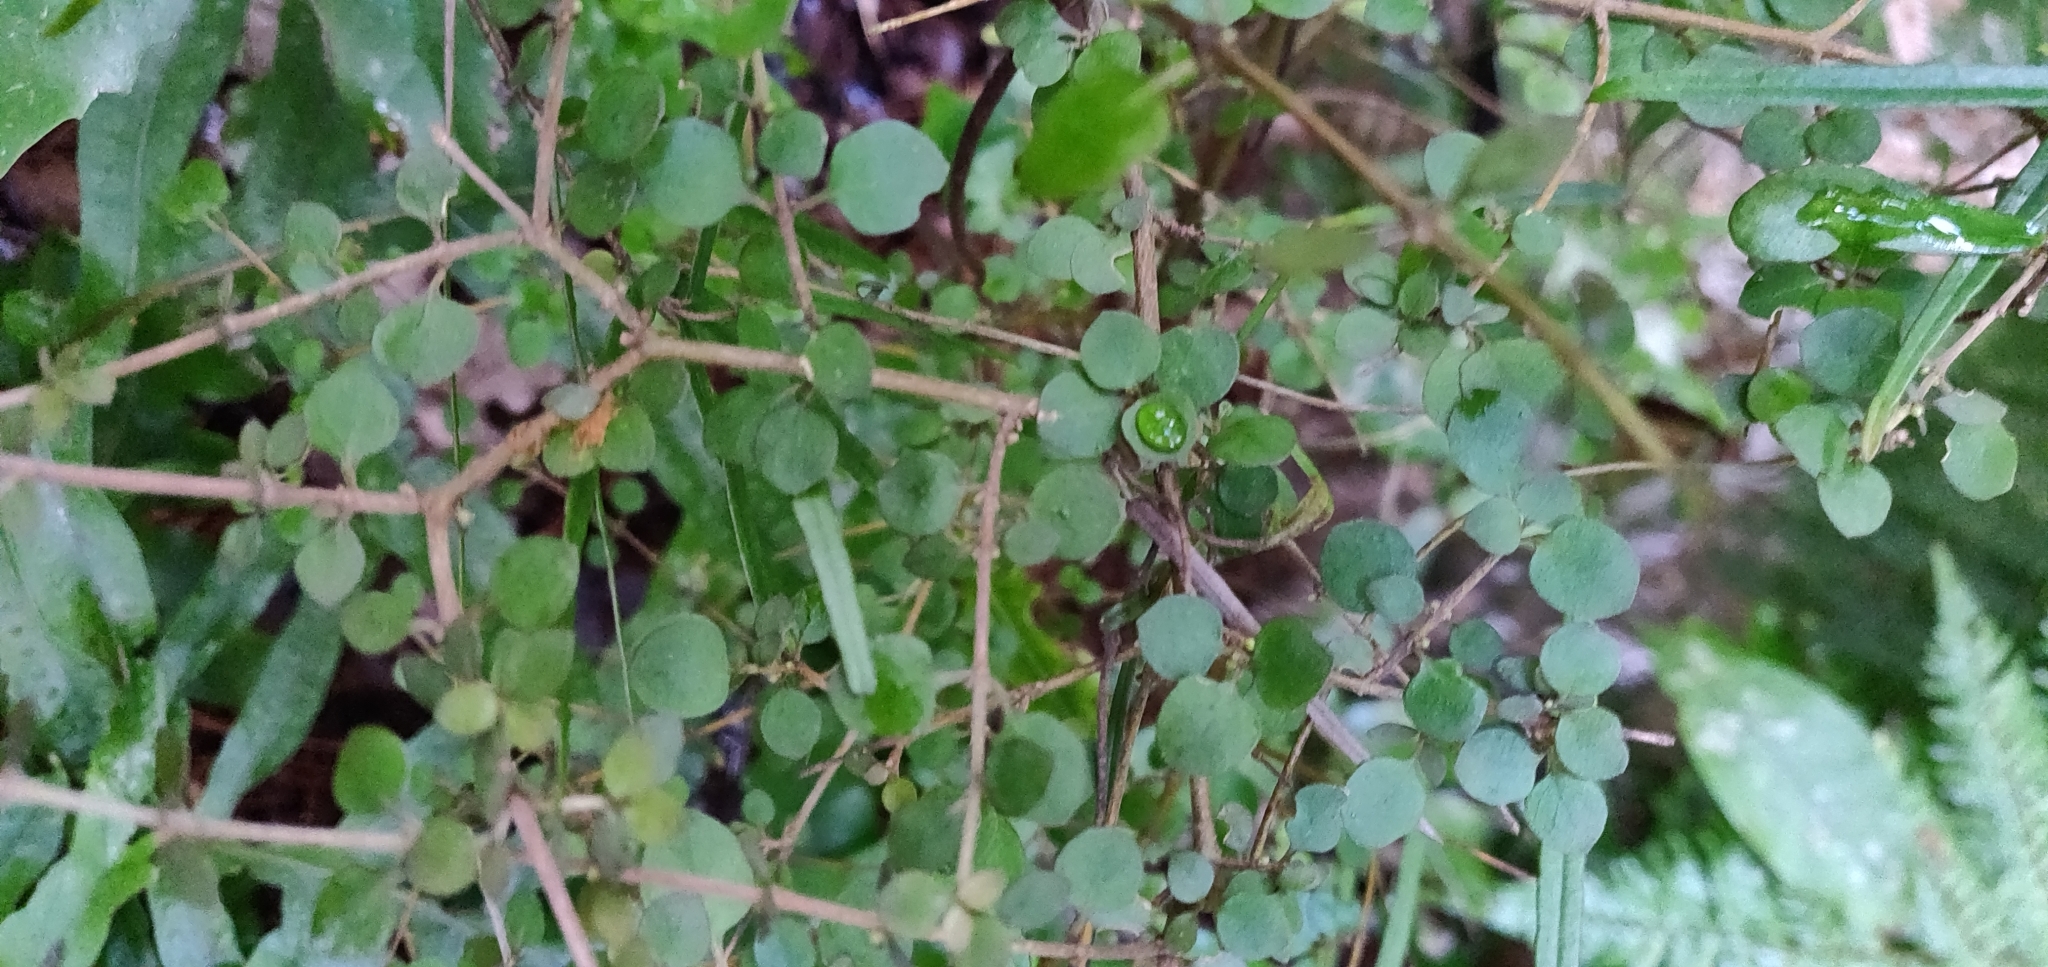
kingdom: Plantae
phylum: Tracheophyta
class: Magnoliopsida
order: Gentianales
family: Rubiaceae
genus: Coprosma
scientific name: Coprosma rhamnoides
